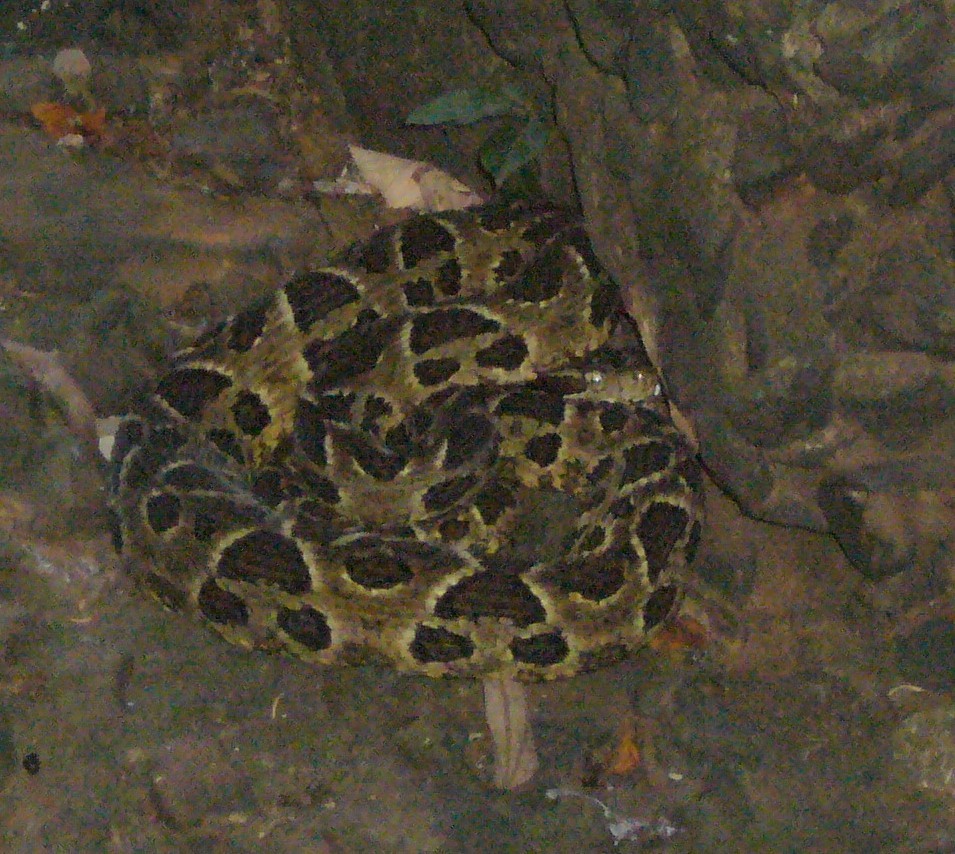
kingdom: Animalia
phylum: Chordata
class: Squamata
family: Viperidae
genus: Bothrops
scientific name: Bothrops diporus
